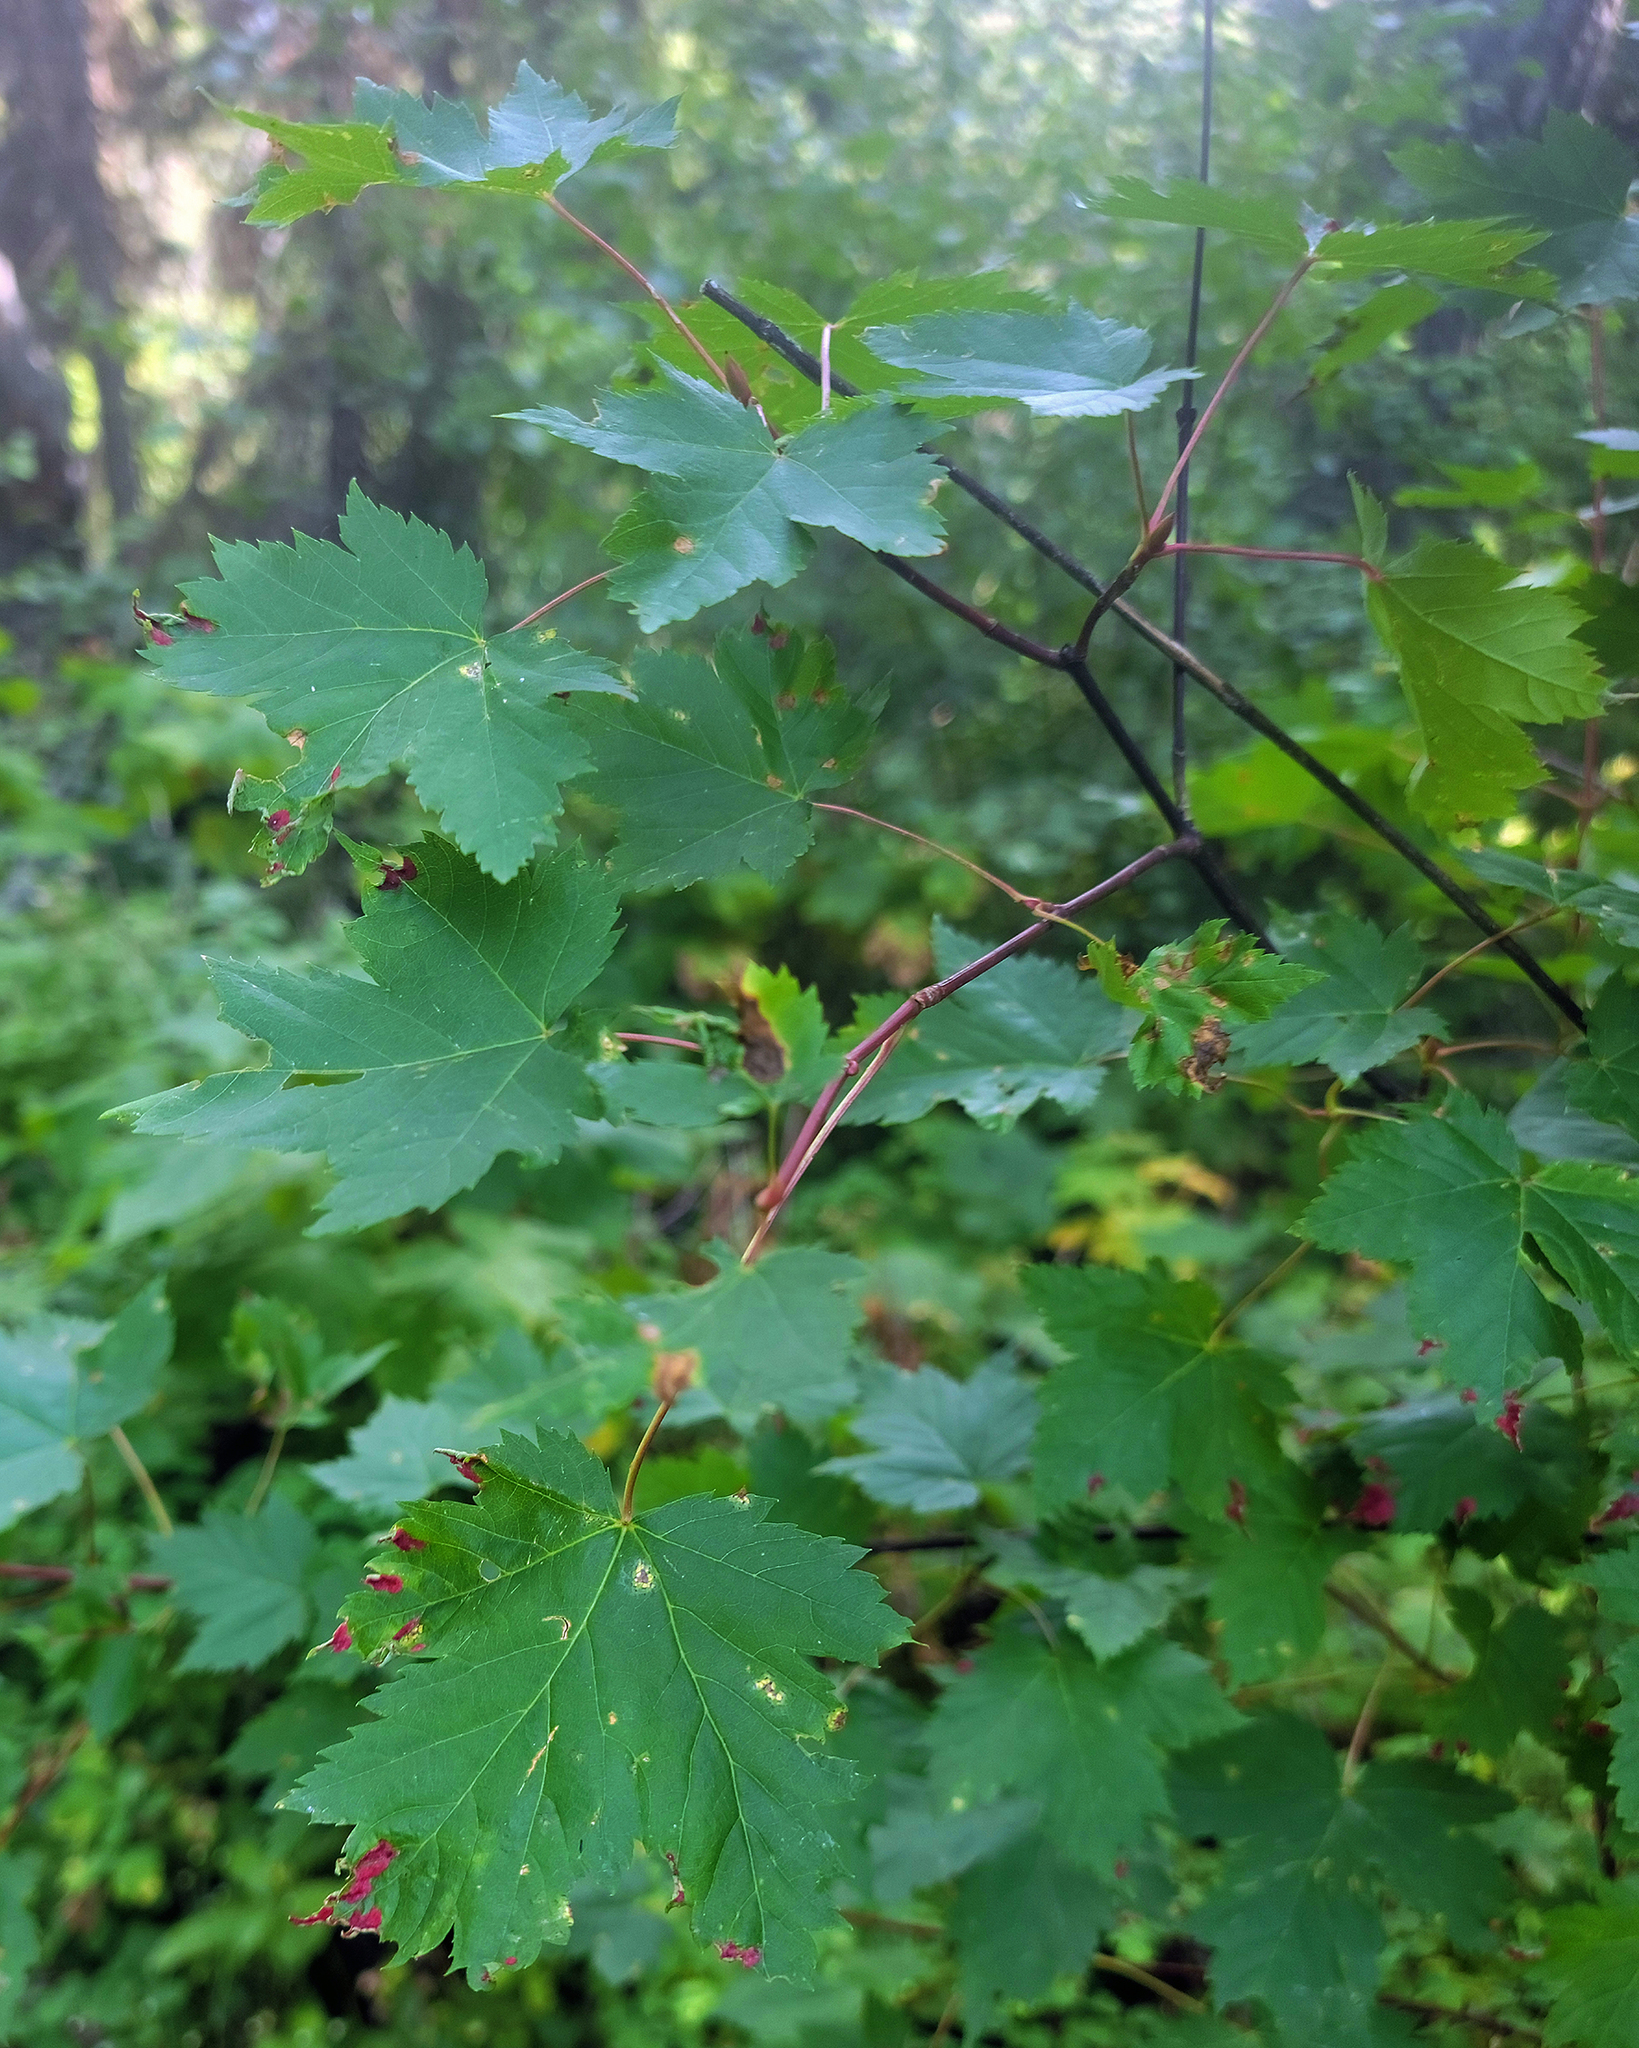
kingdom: Plantae
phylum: Tracheophyta
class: Magnoliopsida
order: Sapindales
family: Sapindaceae
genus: Acer
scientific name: Acer glabrum
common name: Rocky mountain maple
